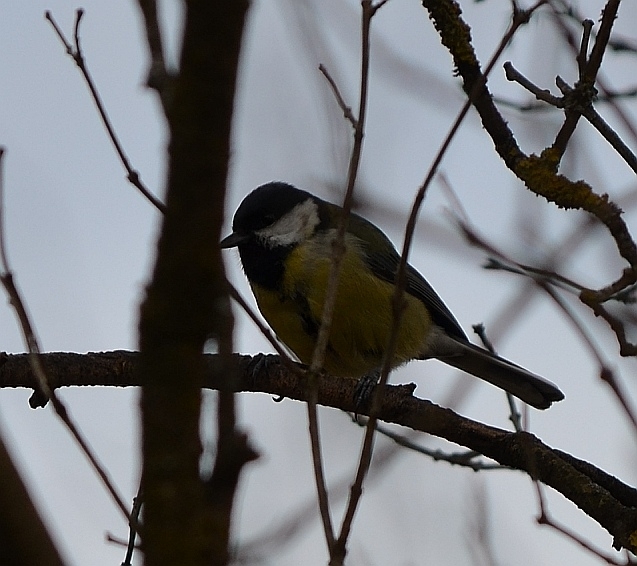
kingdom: Animalia
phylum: Chordata
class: Aves
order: Passeriformes
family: Paridae
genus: Parus
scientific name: Parus major
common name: Great tit
